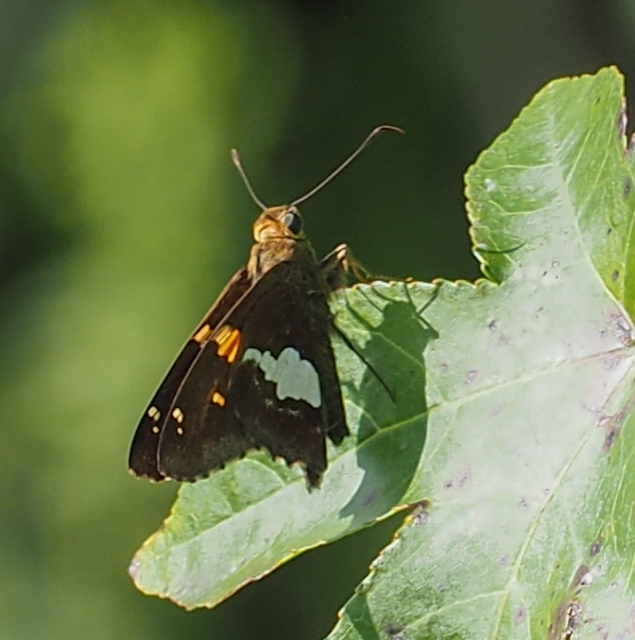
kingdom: Animalia
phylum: Arthropoda
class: Insecta
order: Lepidoptera
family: Hesperiidae
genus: Epargyreus
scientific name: Epargyreus clarus
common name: Silver-spotted skipper
